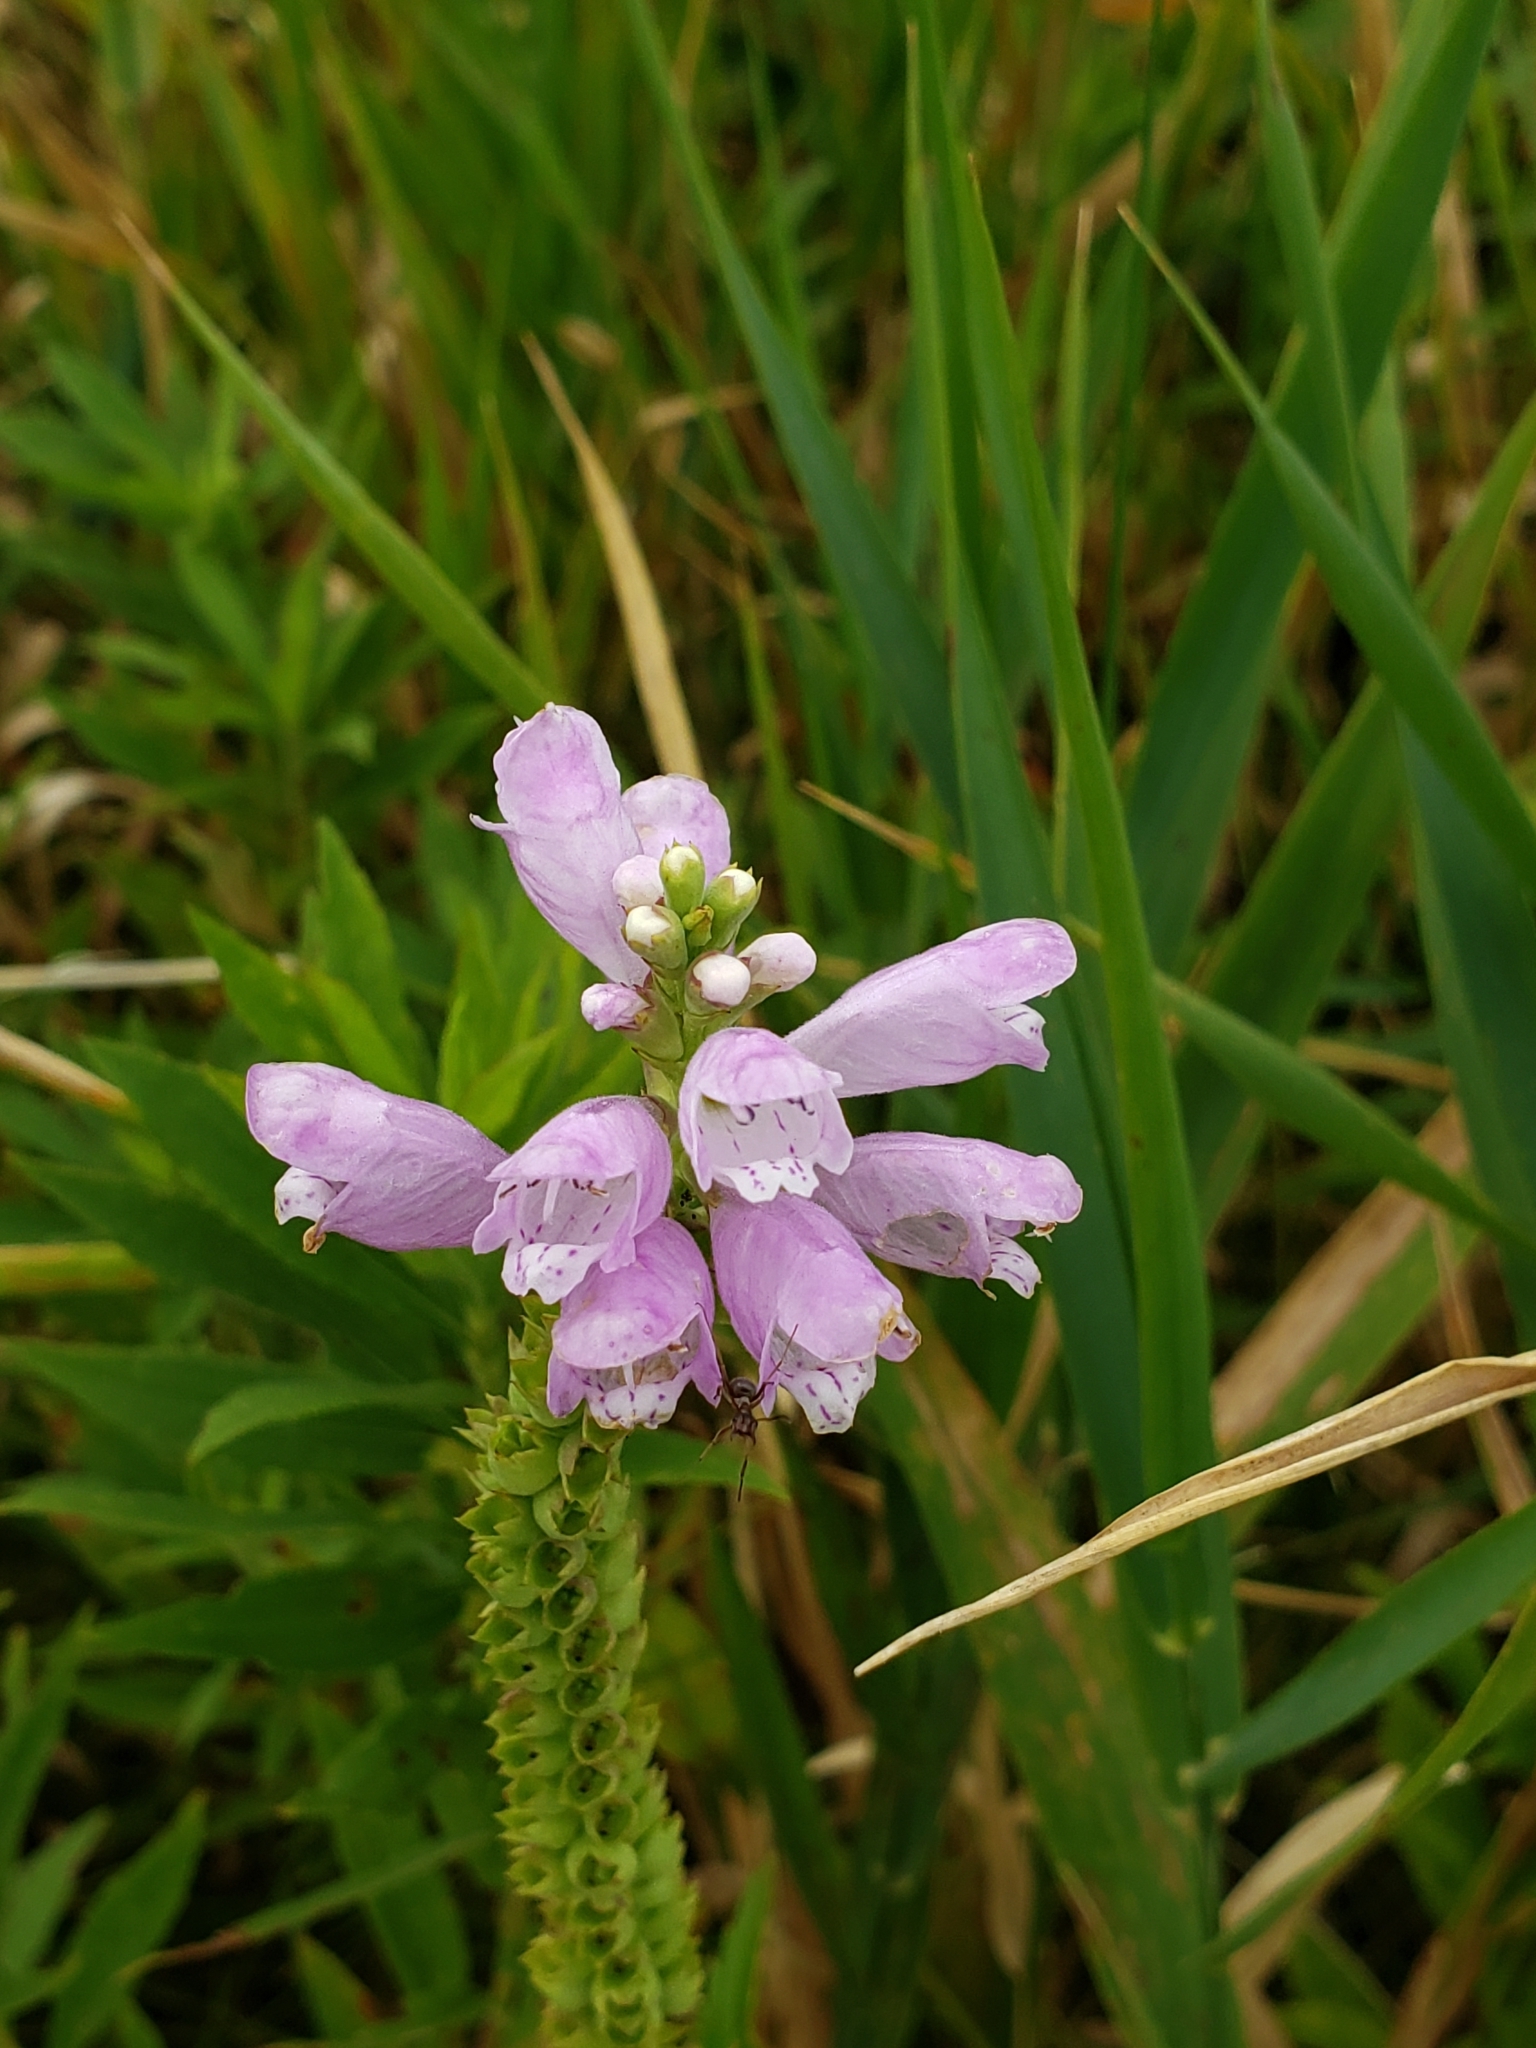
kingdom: Plantae
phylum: Tracheophyta
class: Magnoliopsida
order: Lamiales
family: Lamiaceae
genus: Physostegia
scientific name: Physostegia virginiana
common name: Obedient-plant
